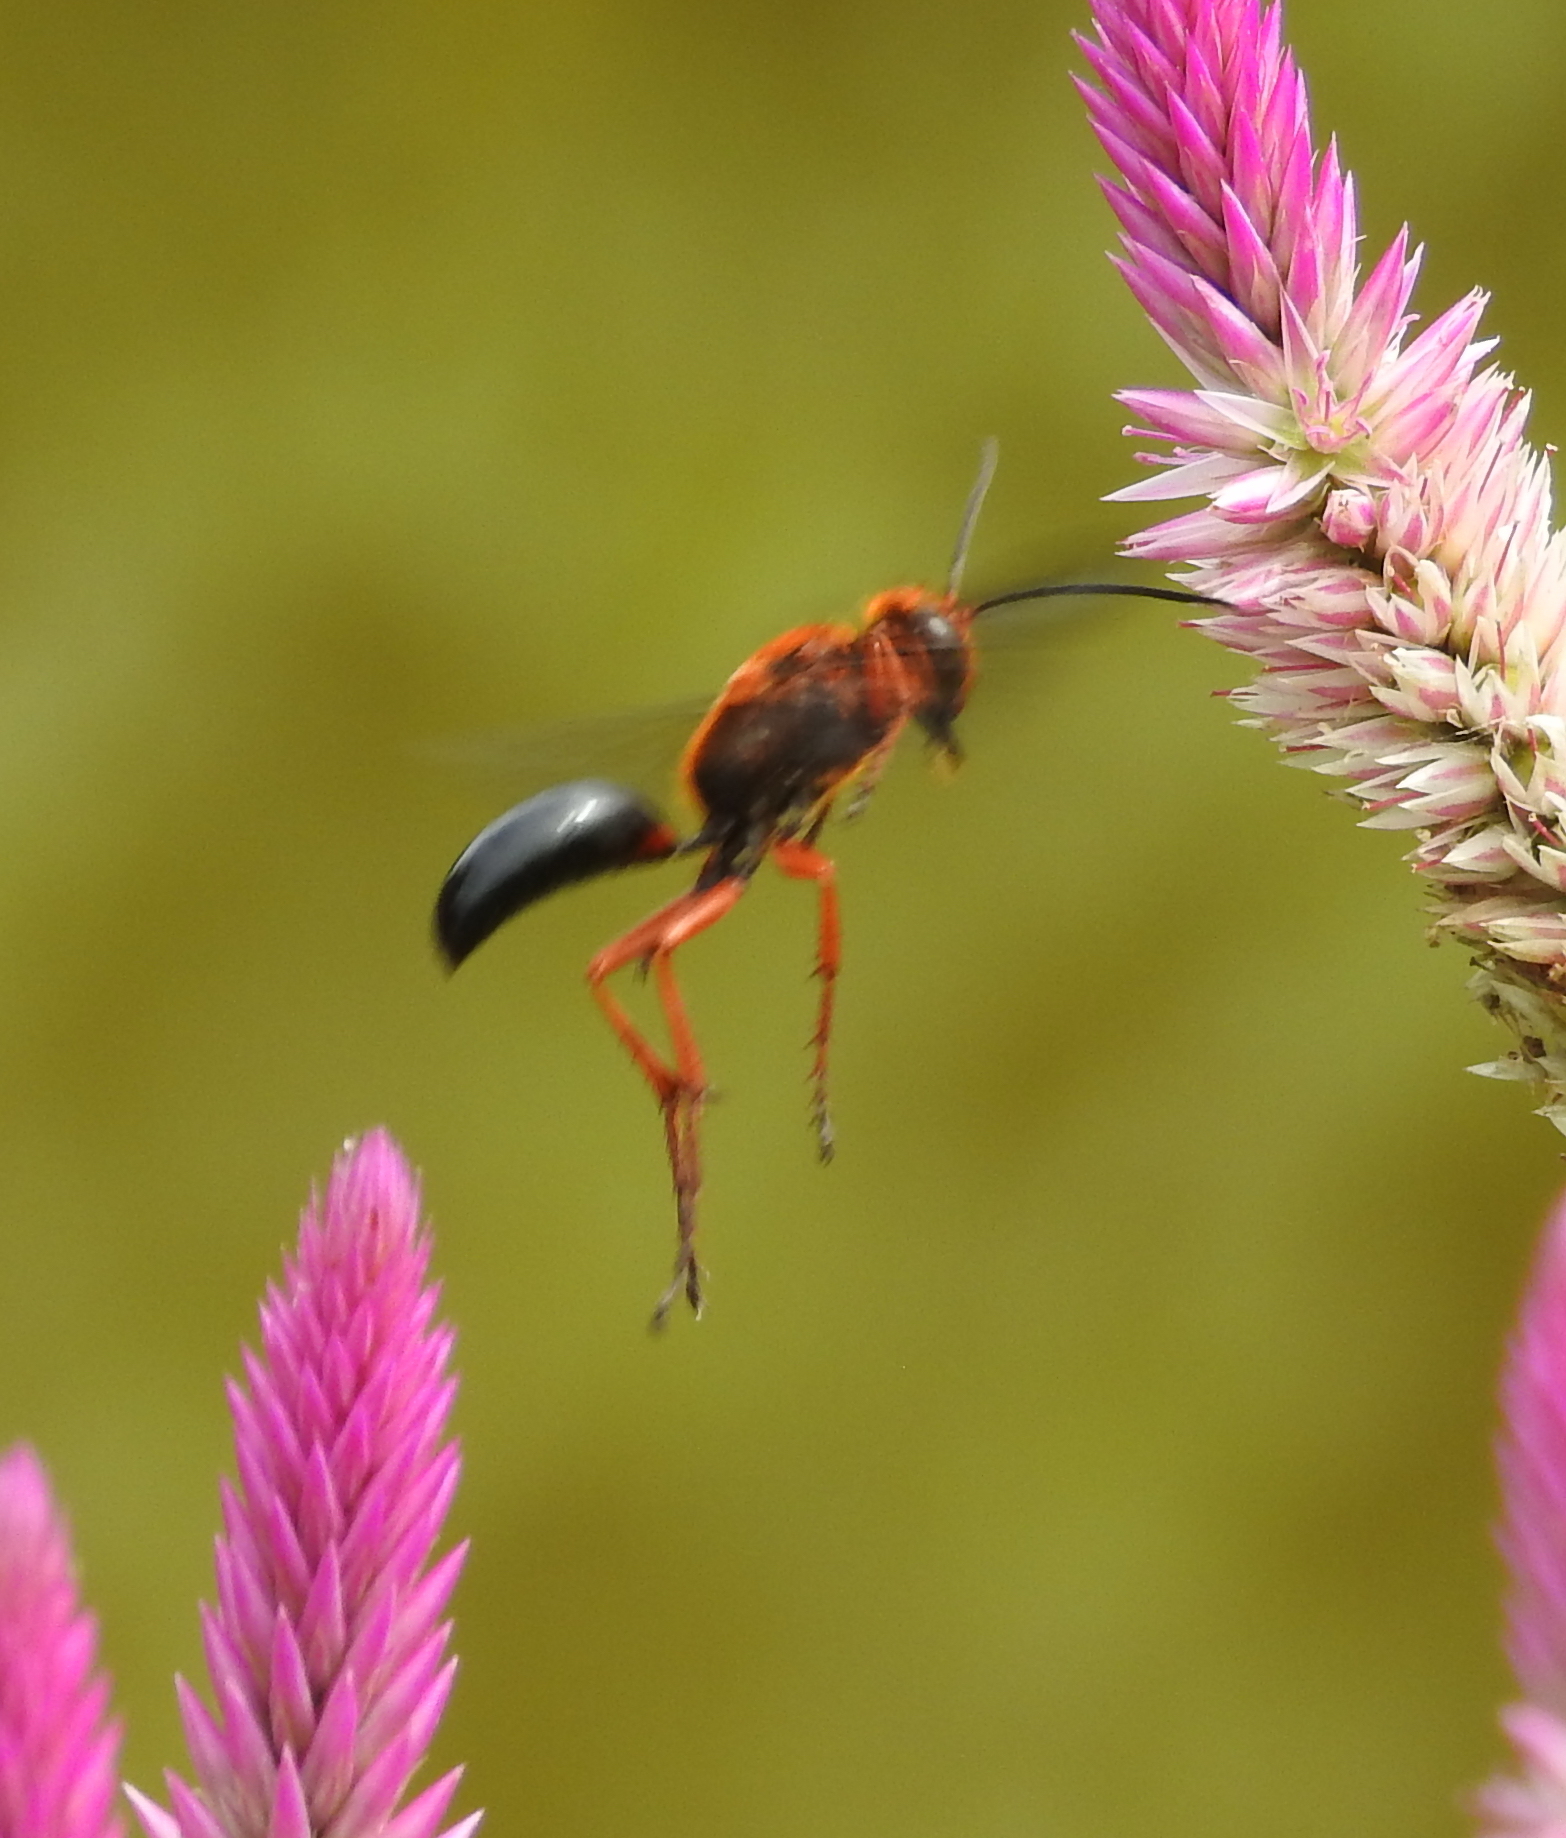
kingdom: Animalia
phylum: Arthropoda
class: Insecta
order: Hymenoptera
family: Sphecidae
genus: Sphex
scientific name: Sphex sericeus
